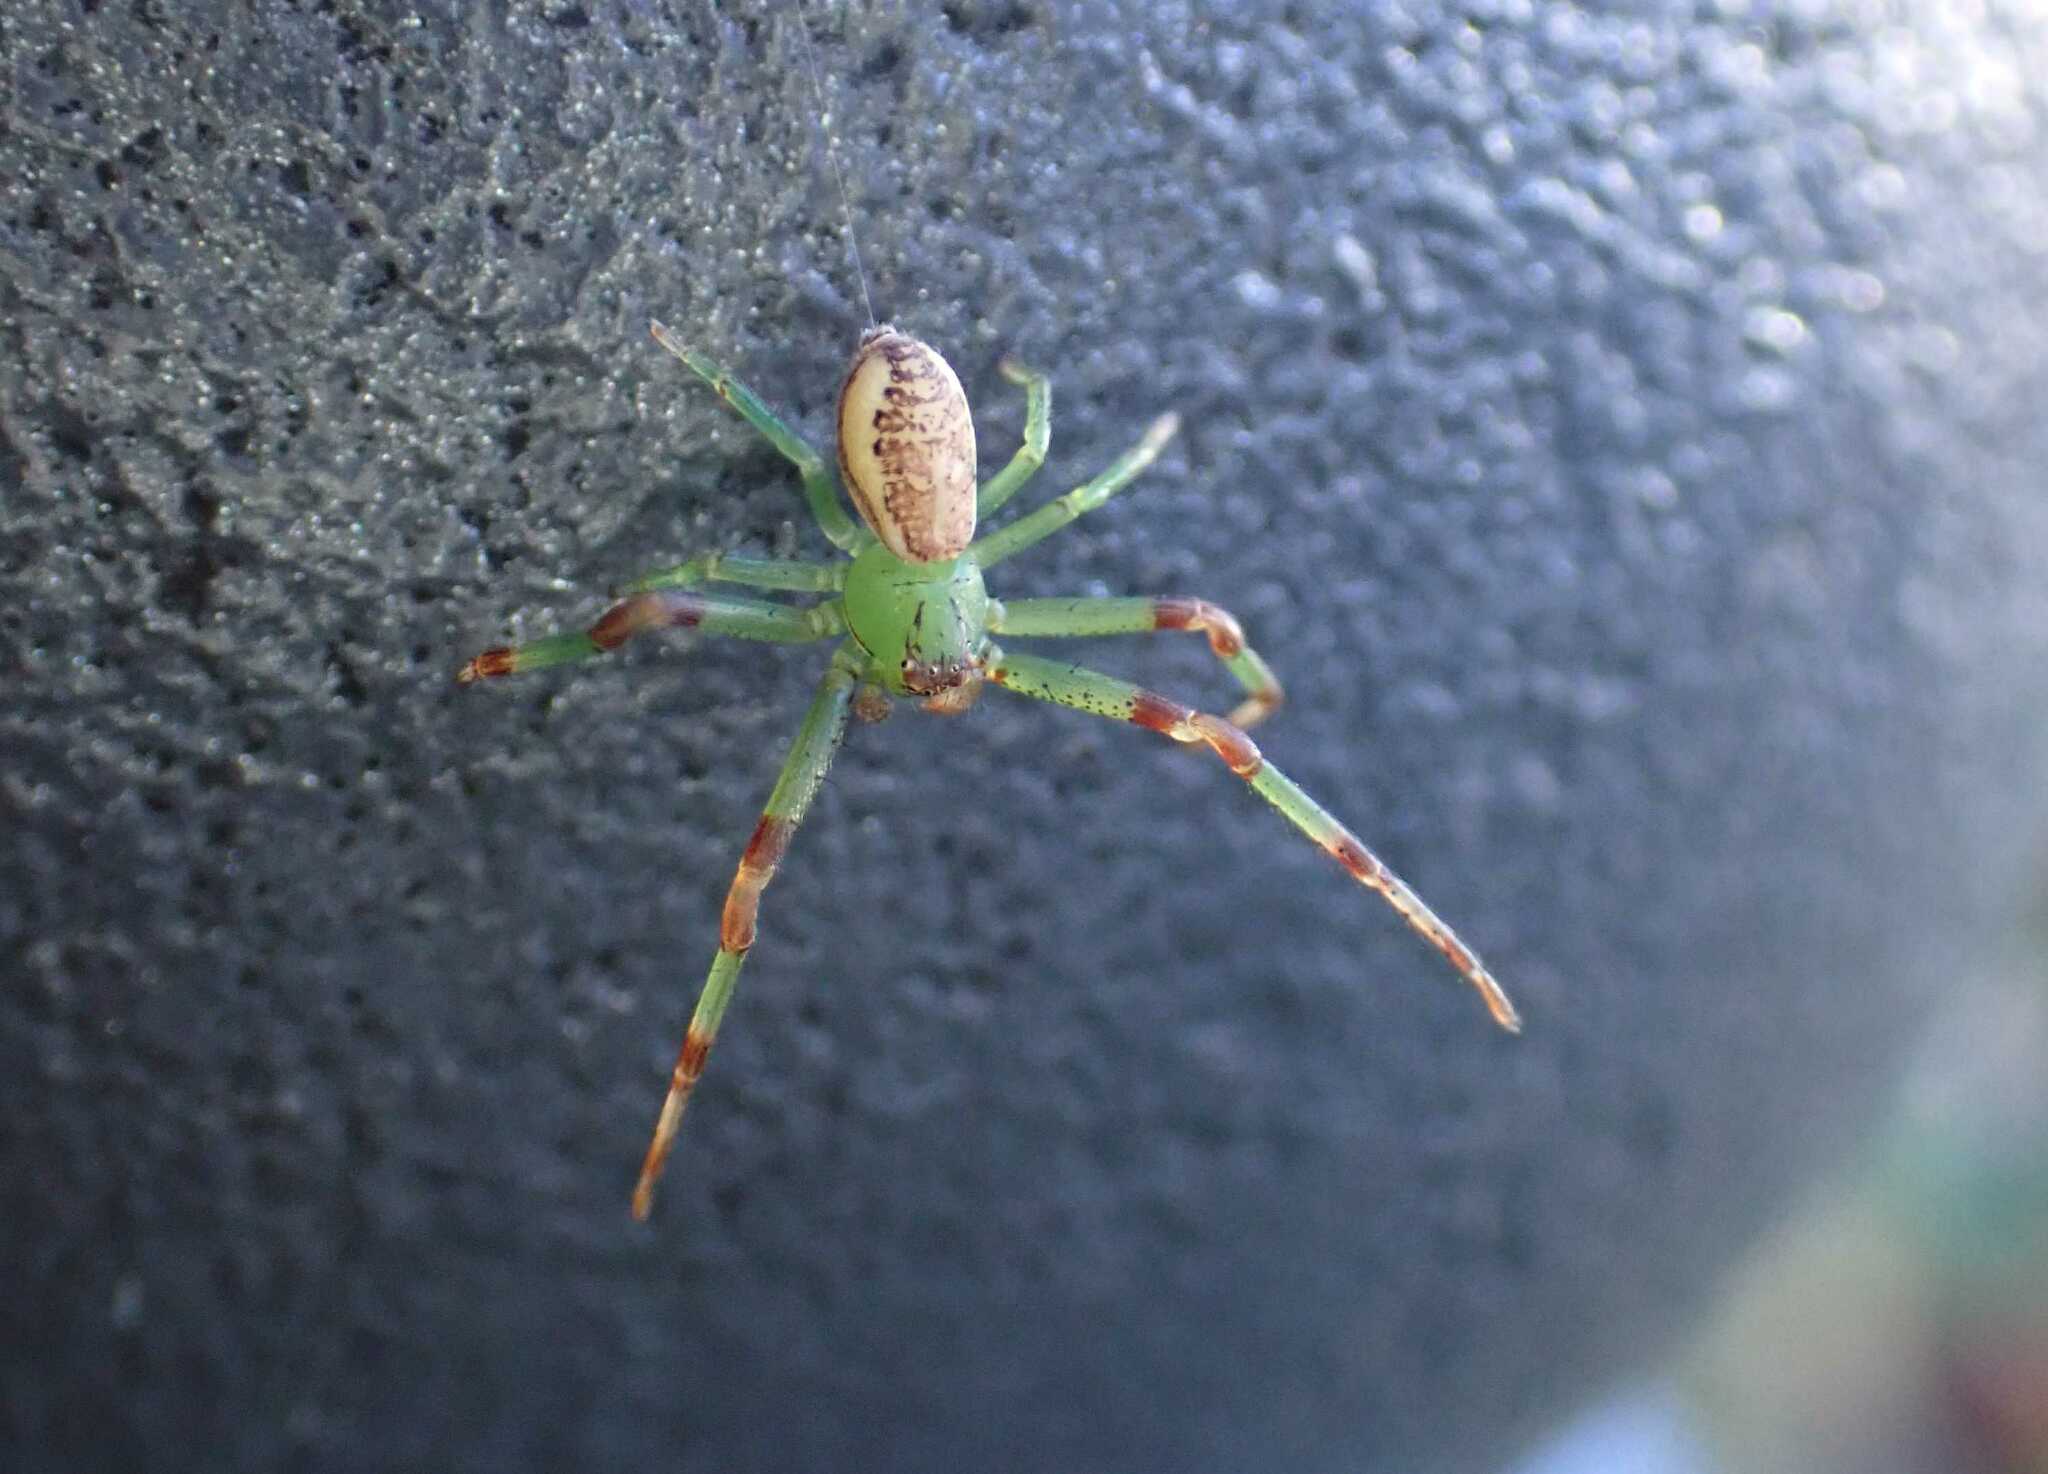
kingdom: Animalia
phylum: Arthropoda
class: Arachnida
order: Araneae
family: Thomisidae
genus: Diaea
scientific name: Diaea dorsata
